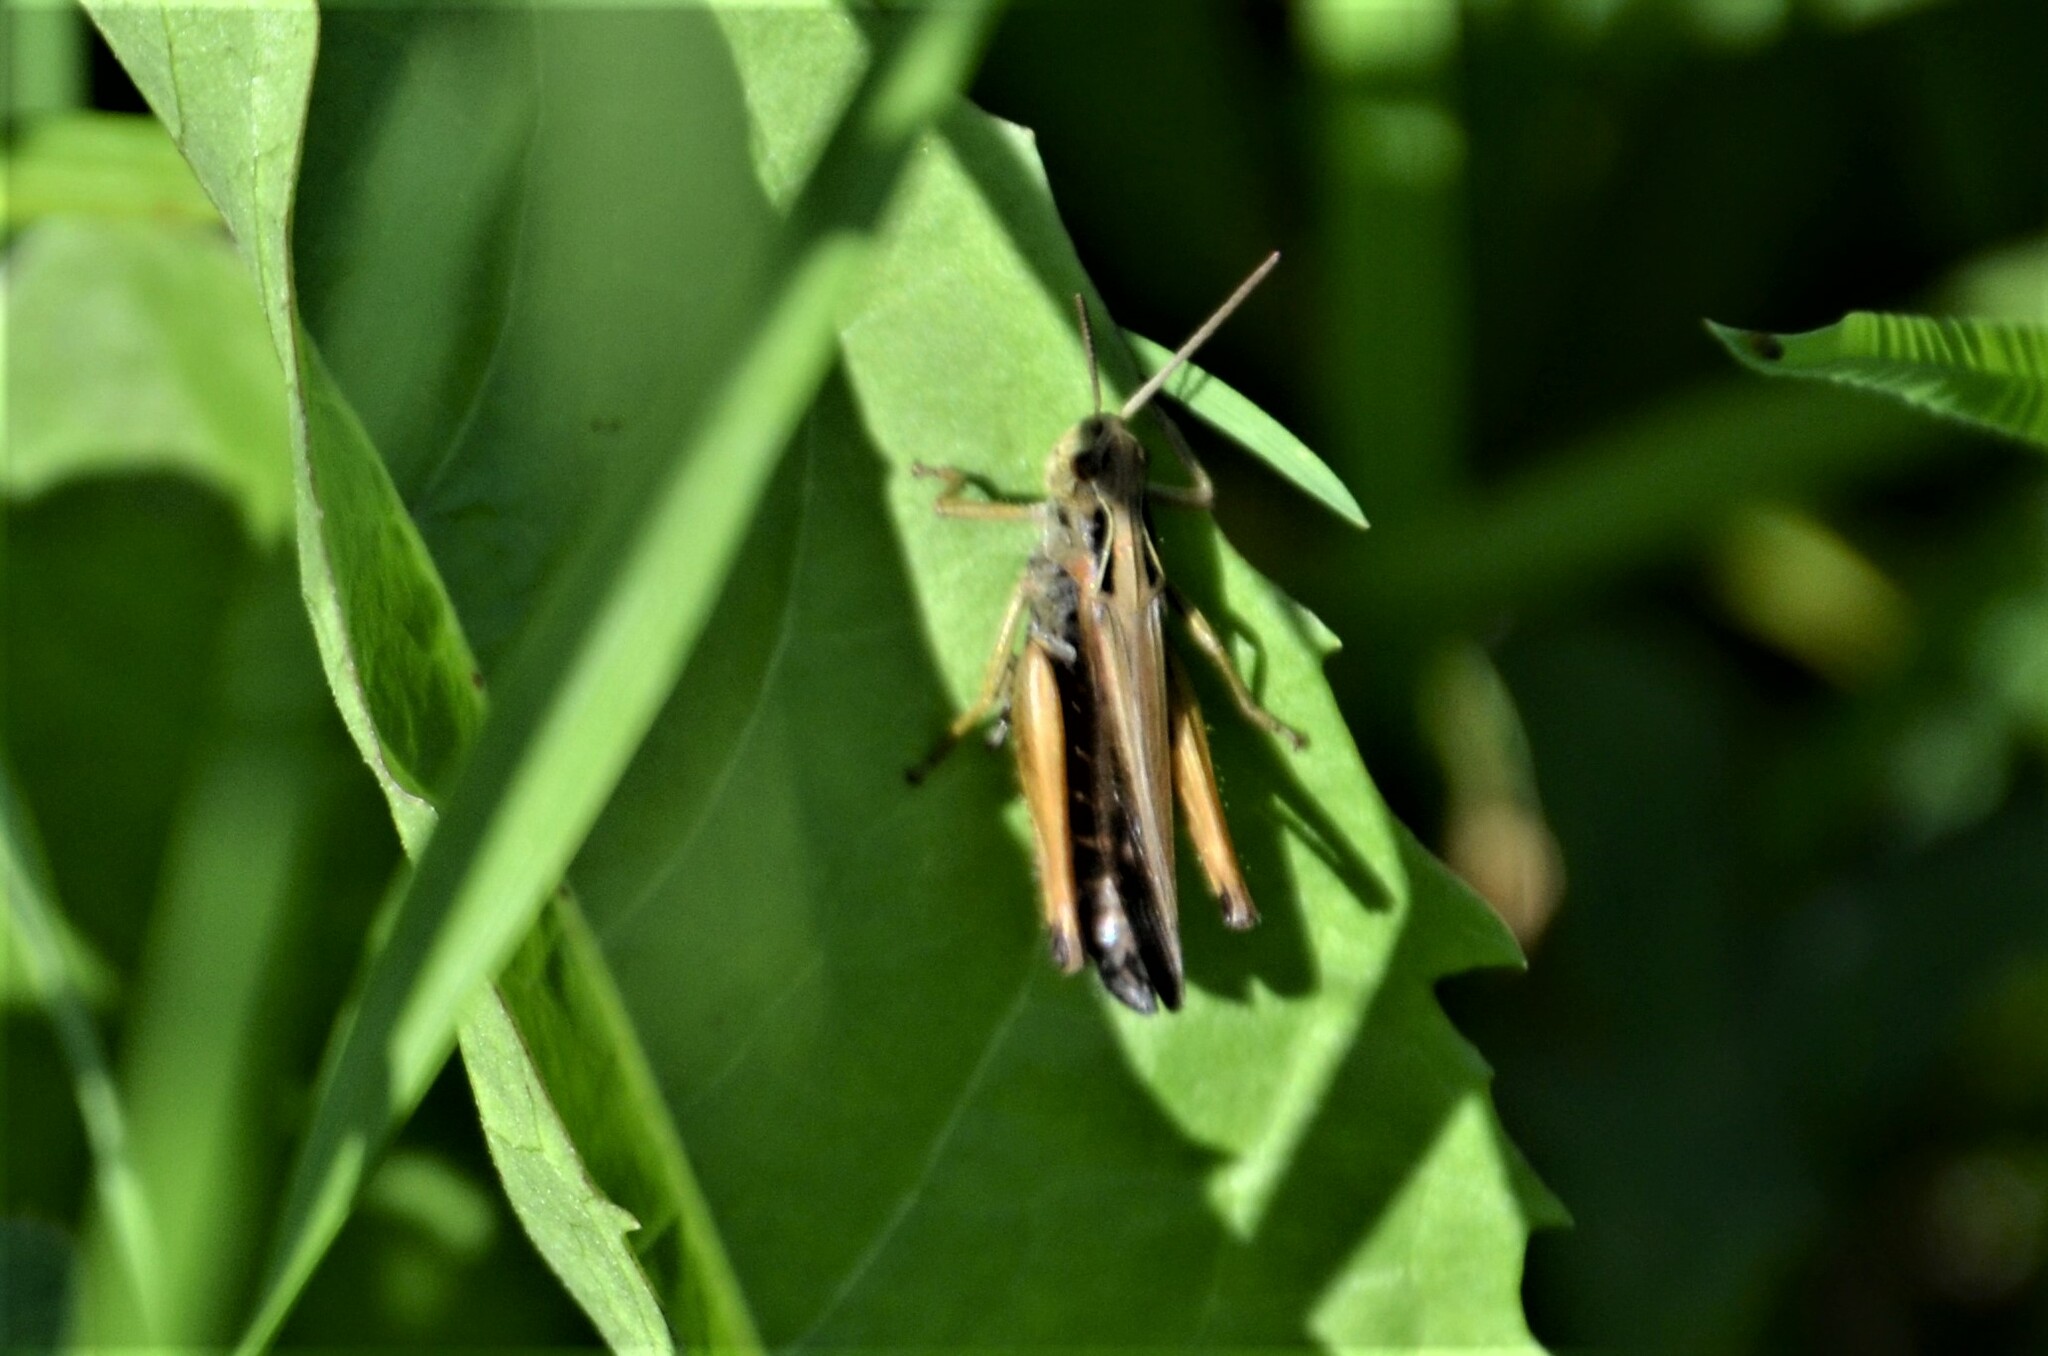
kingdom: Animalia
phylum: Arthropoda
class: Insecta
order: Orthoptera
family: Acrididae
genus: Omocestus
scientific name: Omocestus viridulus
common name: Common green grasshopper
